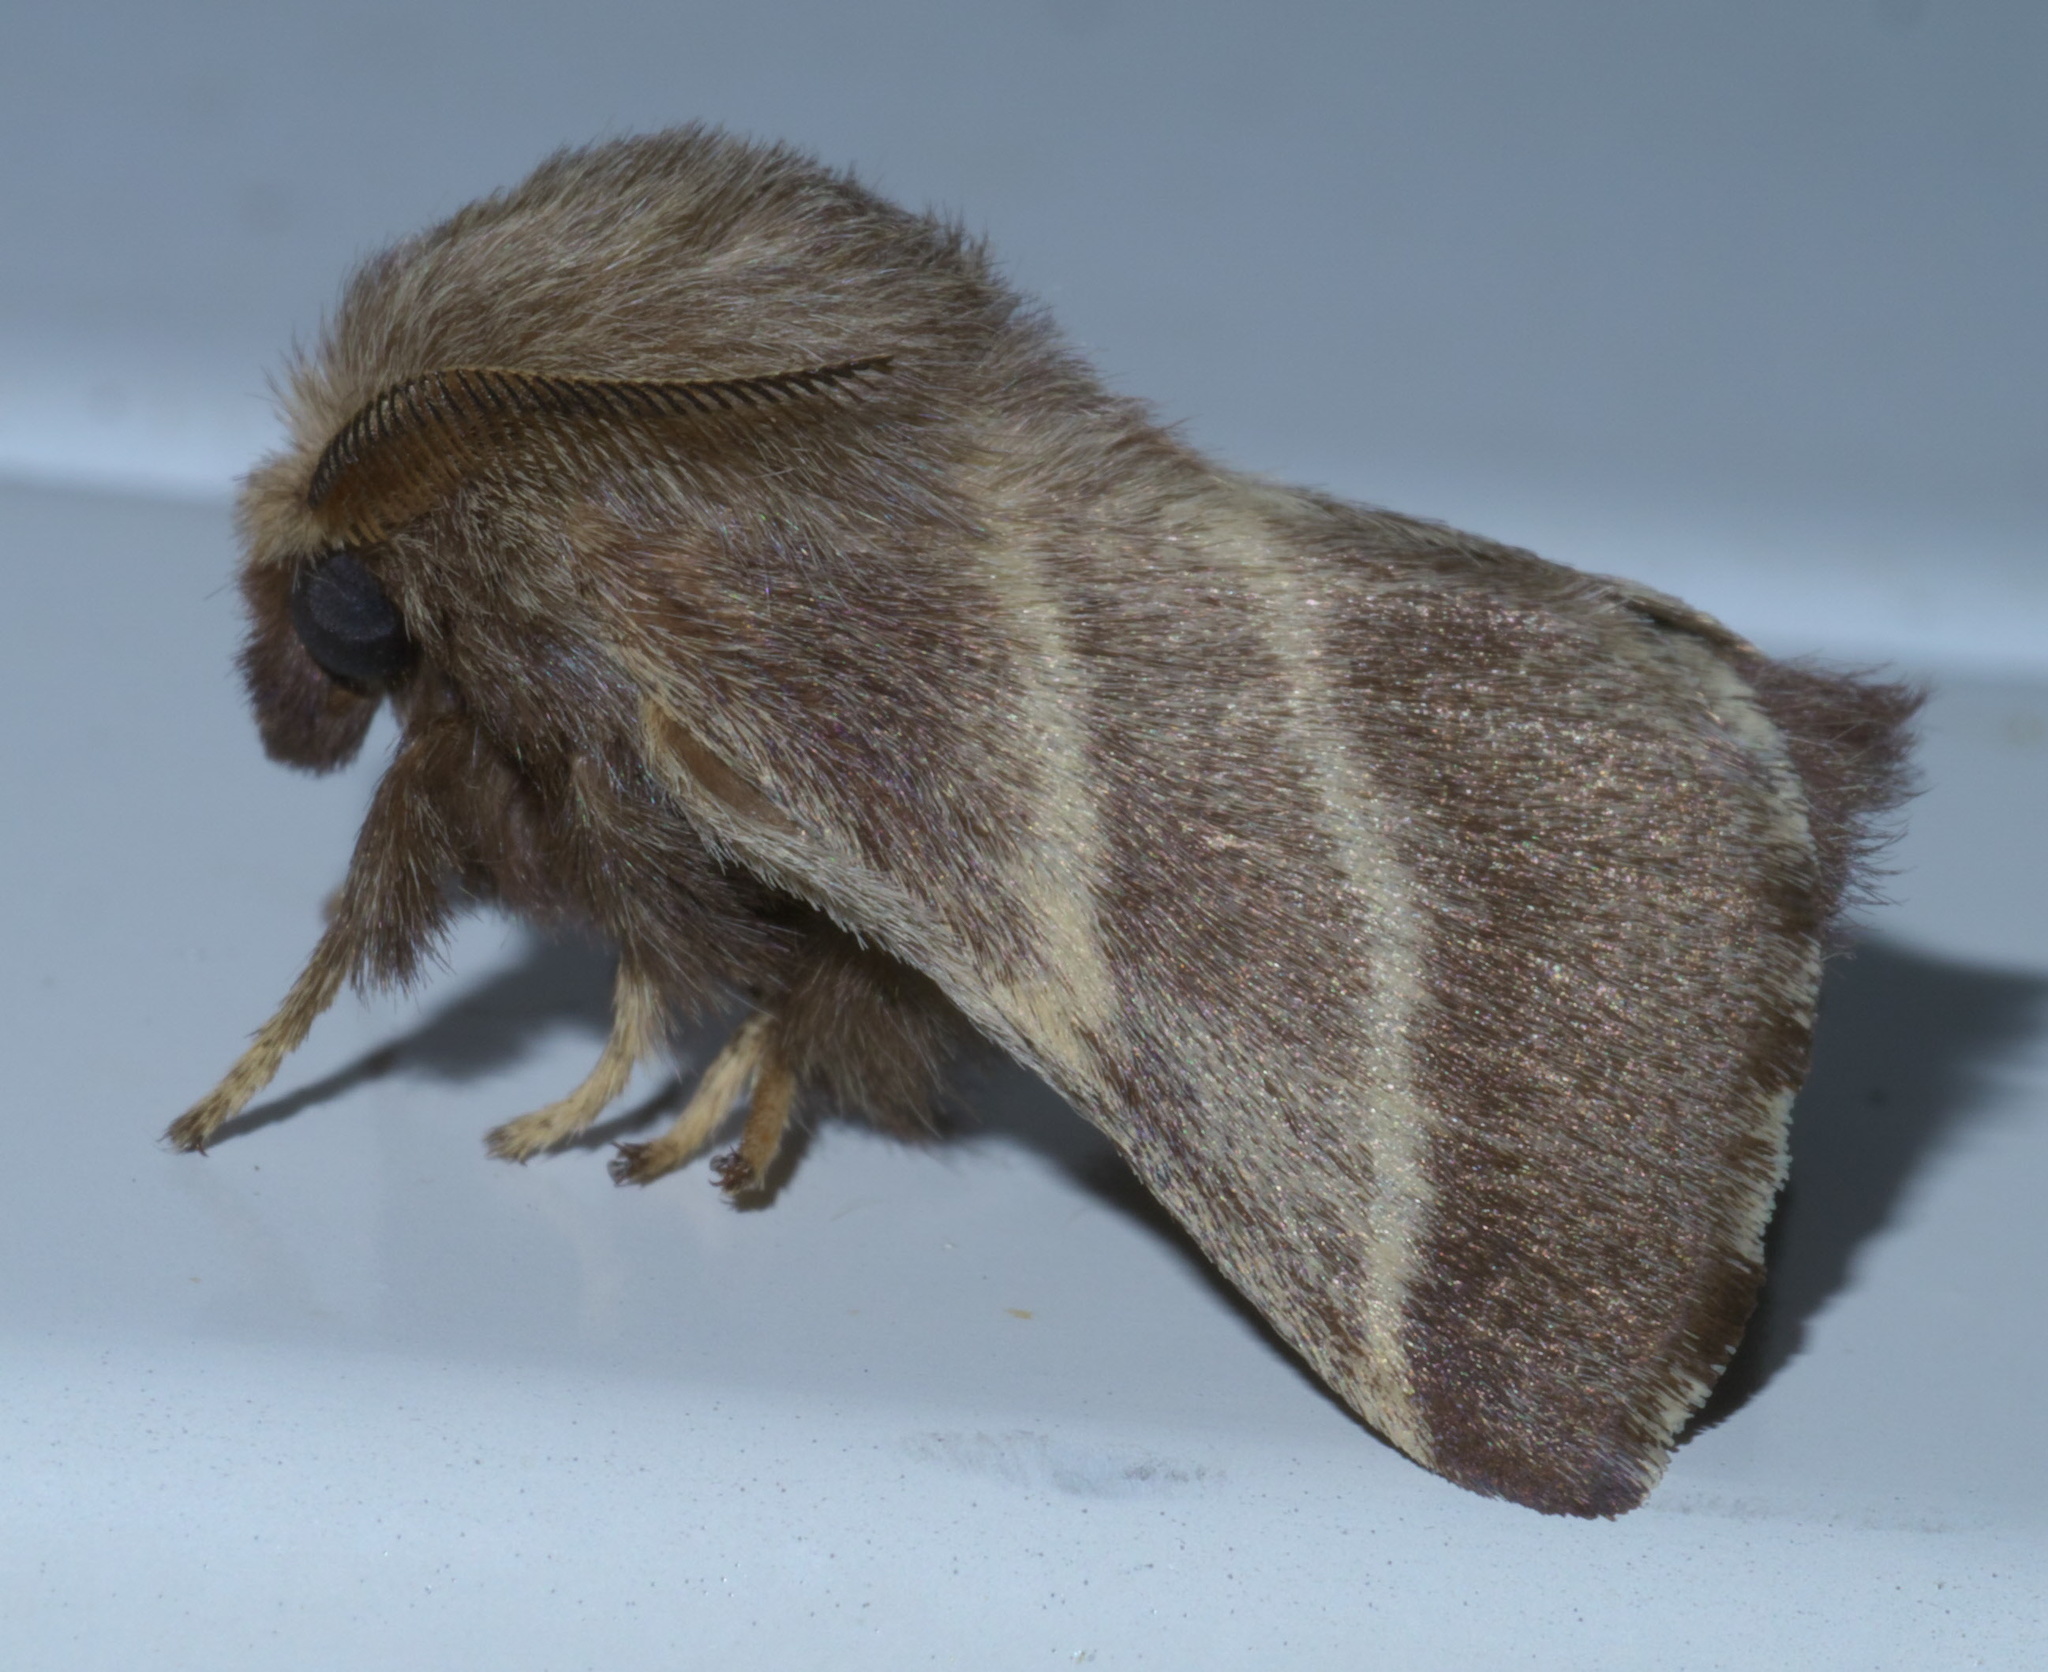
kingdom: Animalia
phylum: Arthropoda
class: Insecta
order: Lepidoptera
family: Lasiocampidae
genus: Malacosoma
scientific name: Malacosoma americana
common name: Eastern tent caterpillar moth
